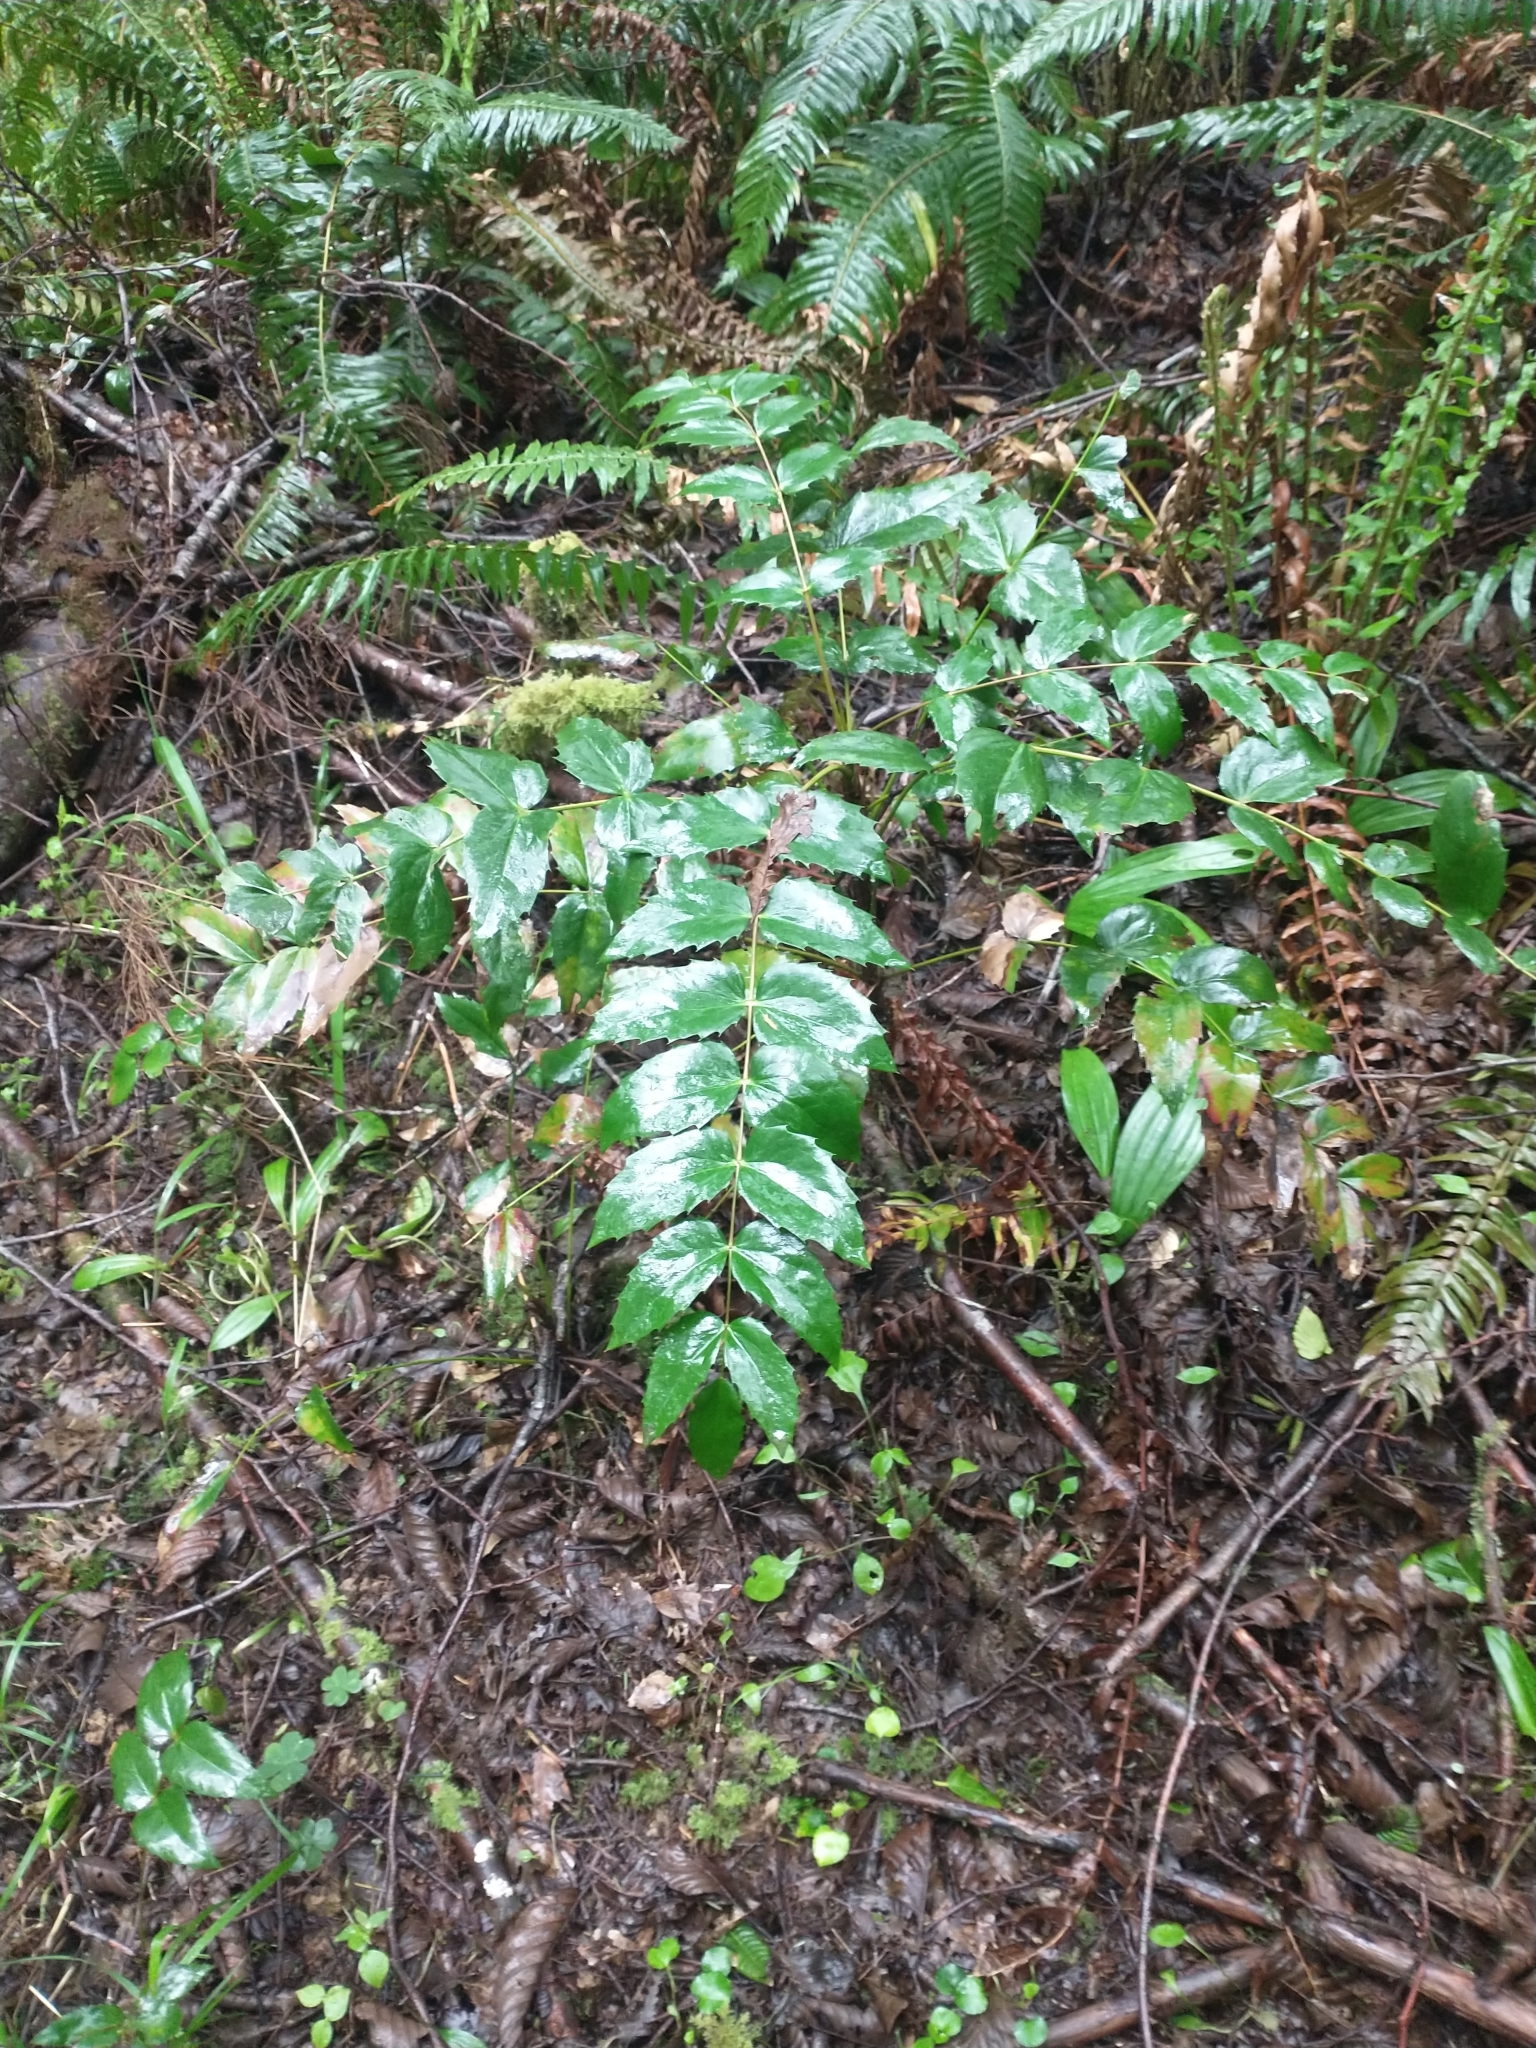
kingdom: Plantae
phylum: Tracheophyta
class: Magnoliopsida
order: Ranunculales
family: Berberidaceae
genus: Mahonia
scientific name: Mahonia nervosa
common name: Cascade oregon-grape
